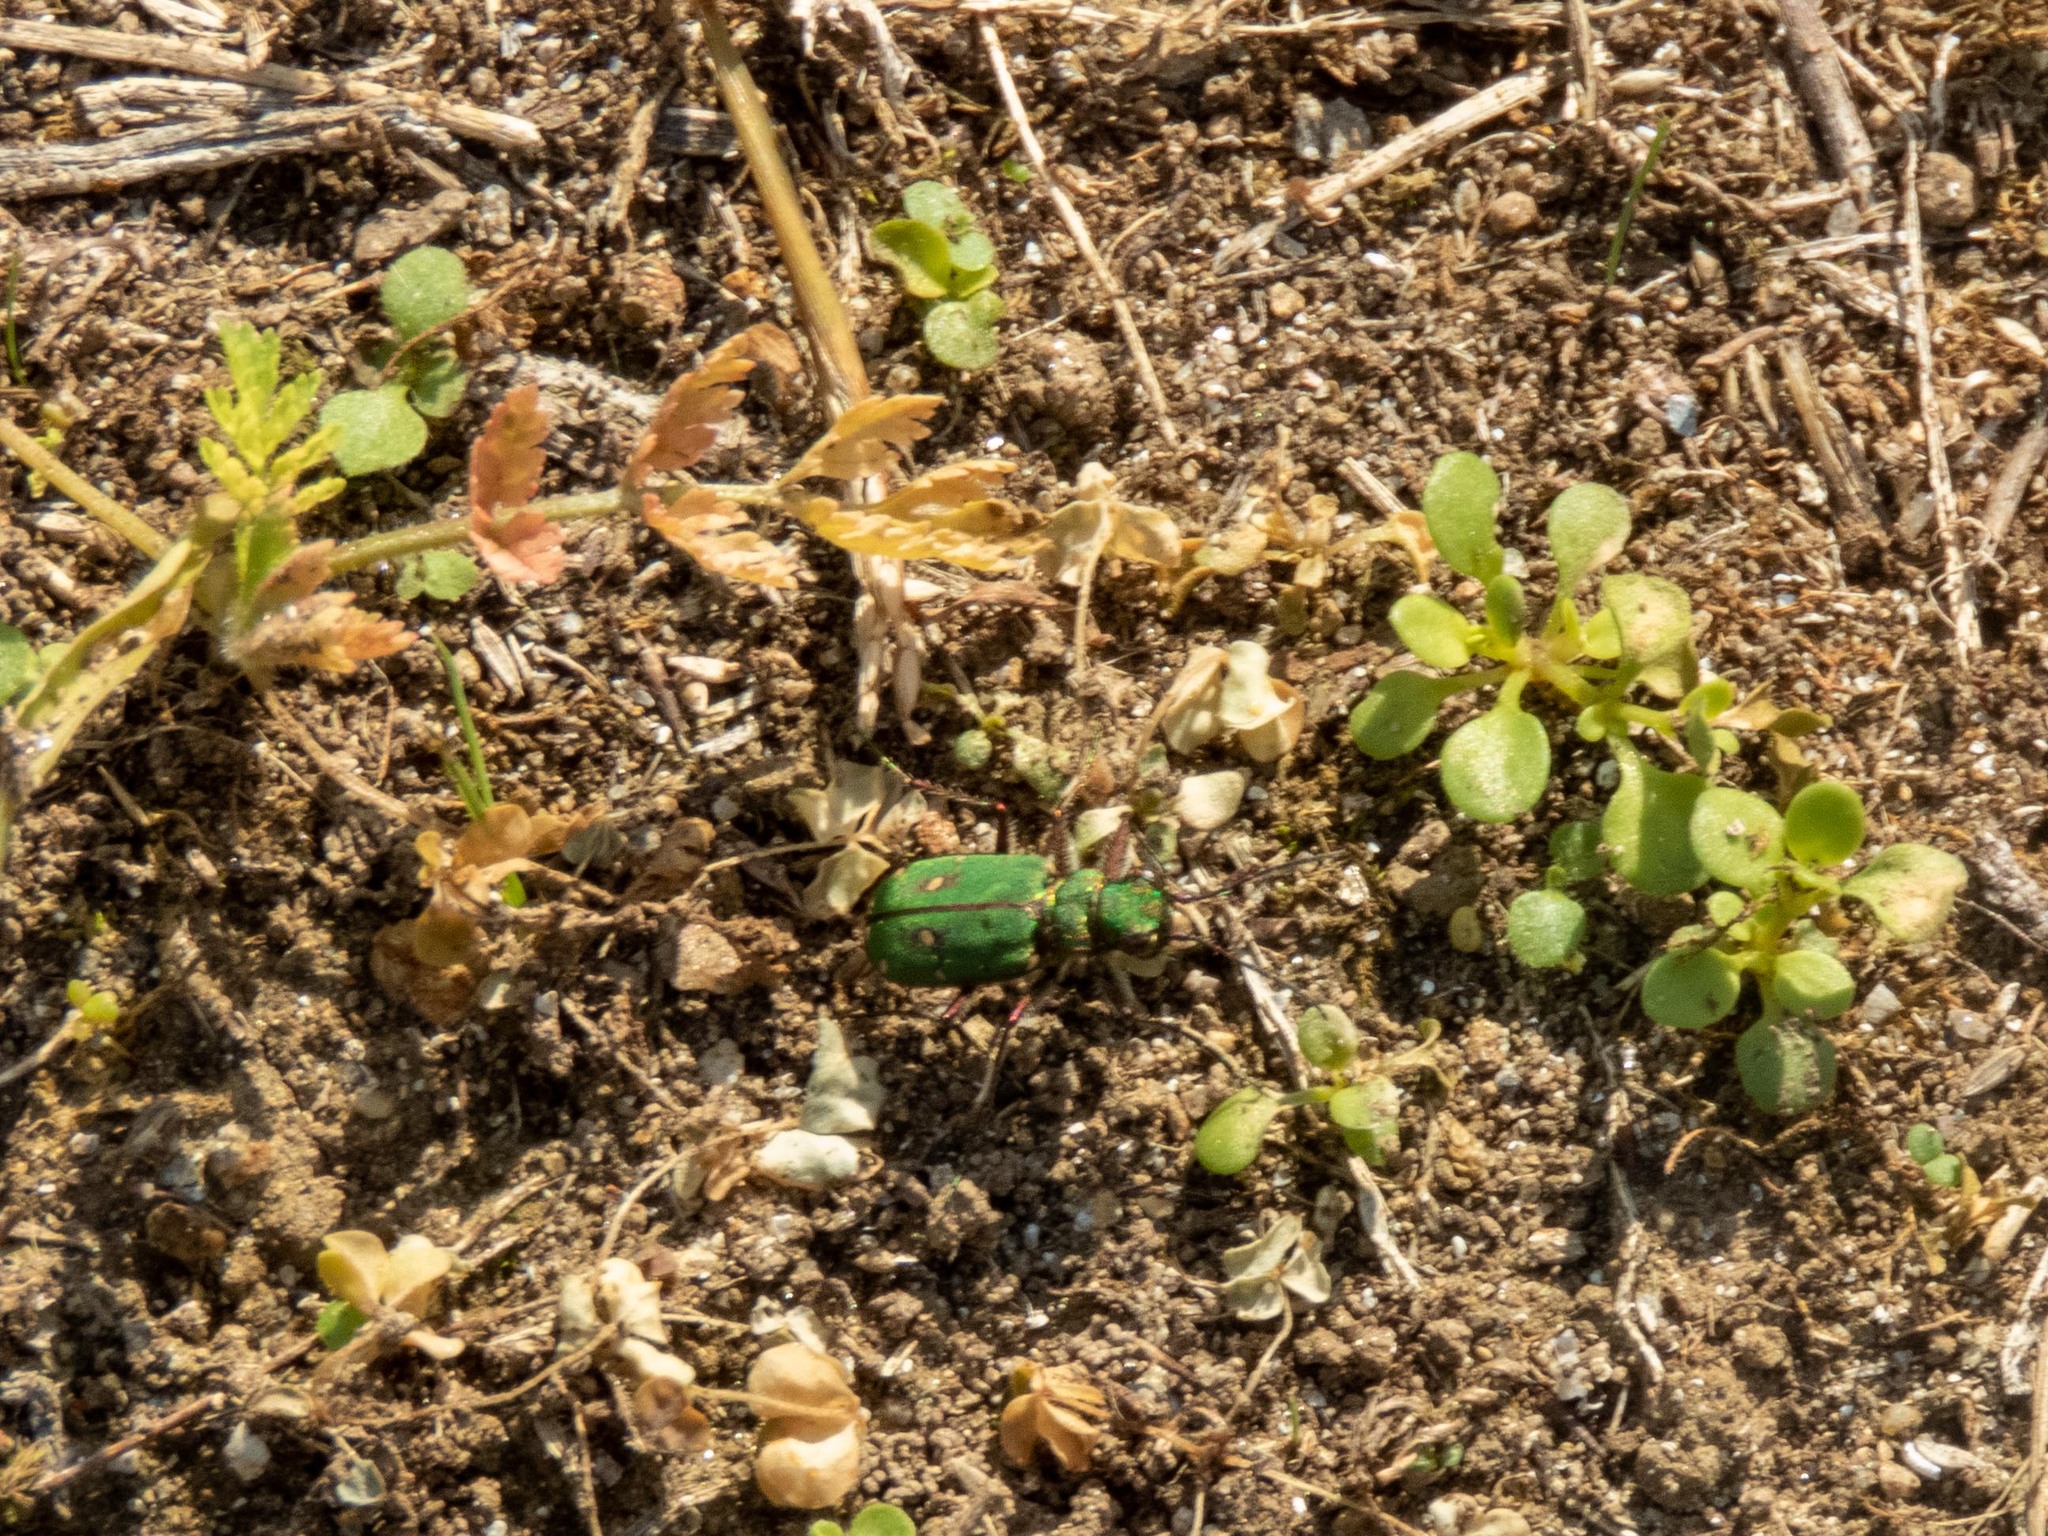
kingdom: Animalia
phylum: Arthropoda
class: Insecta
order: Coleoptera
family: Carabidae
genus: Cicindela
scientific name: Cicindela campestris
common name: Common tiger beetle
